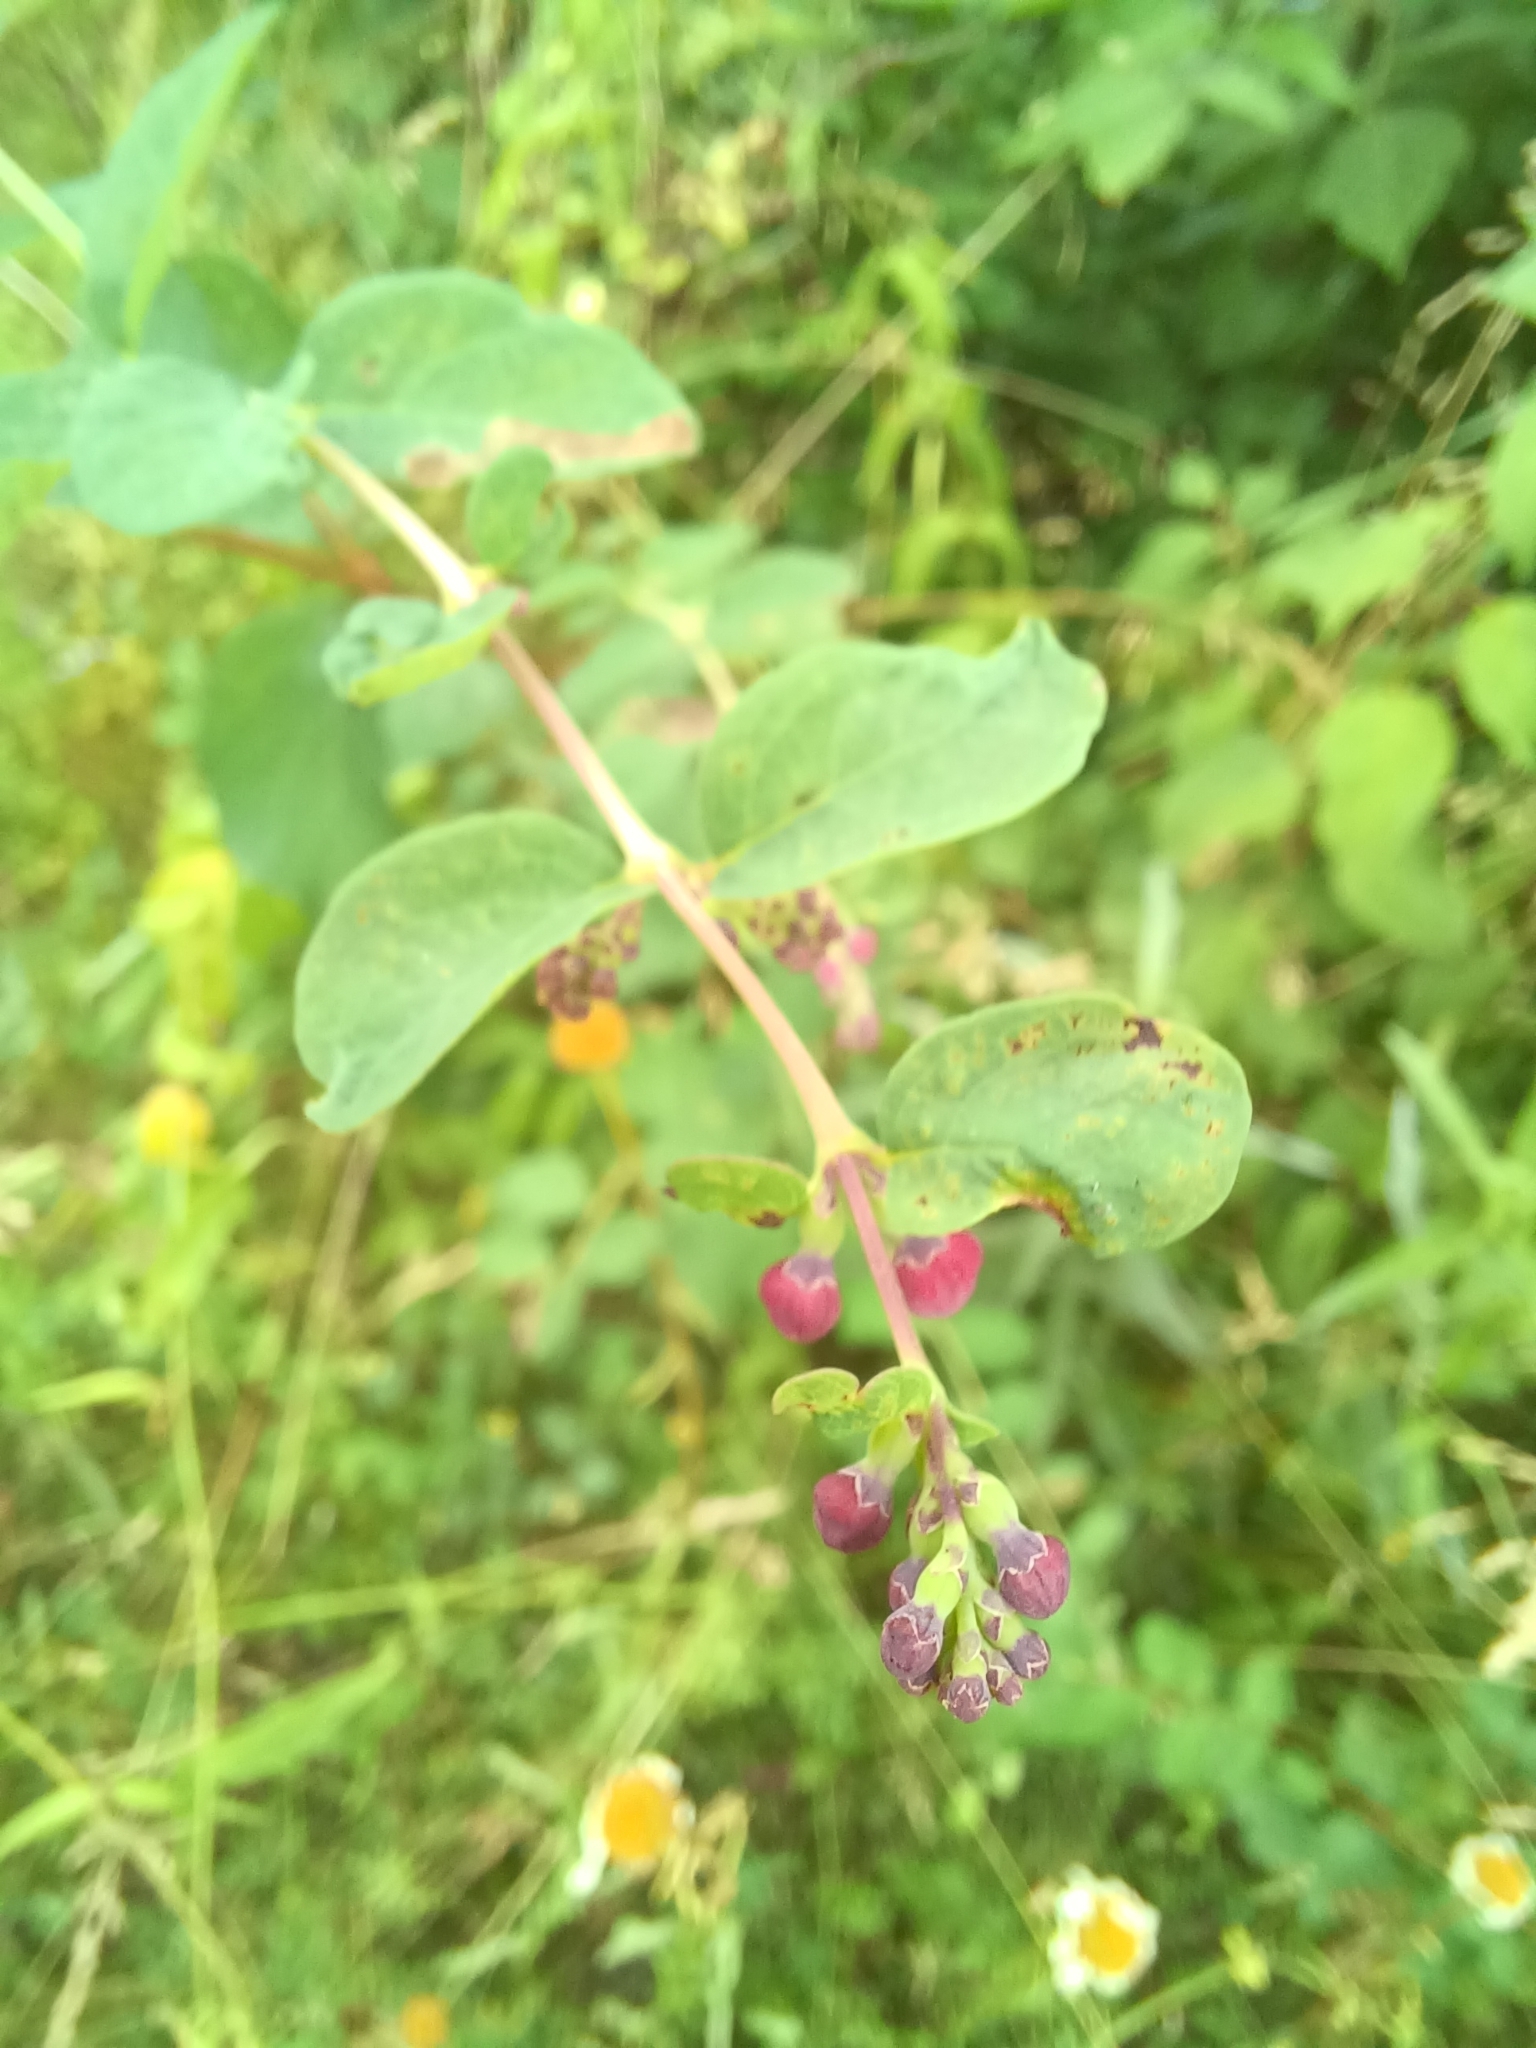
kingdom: Plantae
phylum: Tracheophyta
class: Magnoliopsida
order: Dipsacales
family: Caprifoliaceae
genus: Symphoricarpos
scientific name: Symphoricarpos albus
